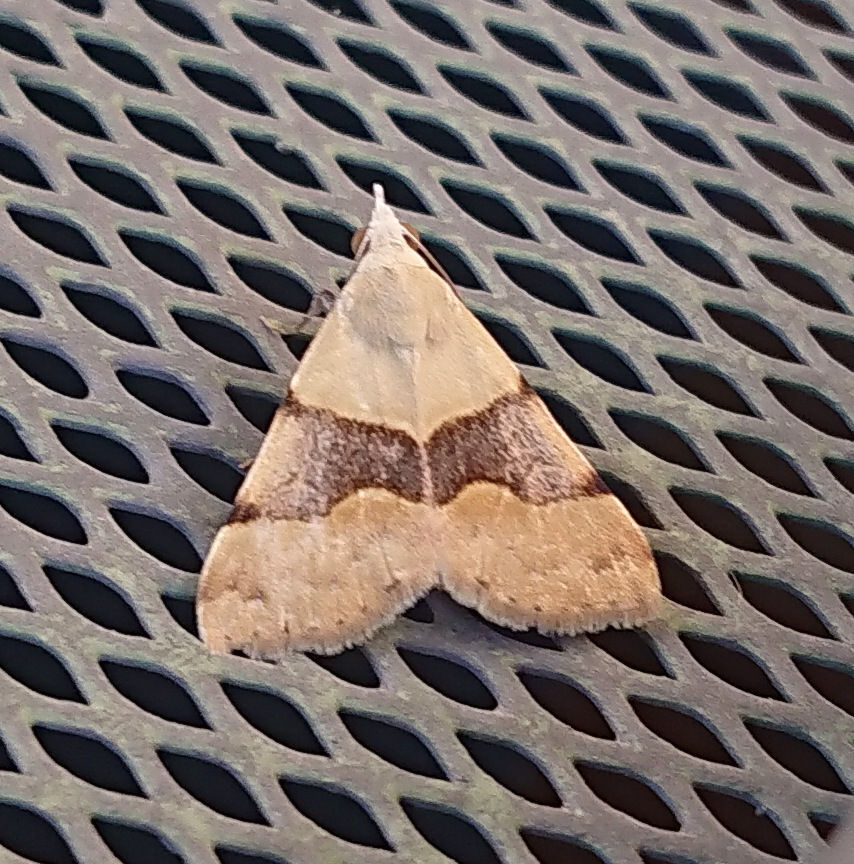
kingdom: Animalia
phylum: Arthropoda
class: Insecta
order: Lepidoptera
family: Erebidae
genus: Hemeroplanis
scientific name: Hemeroplanis incusalis
